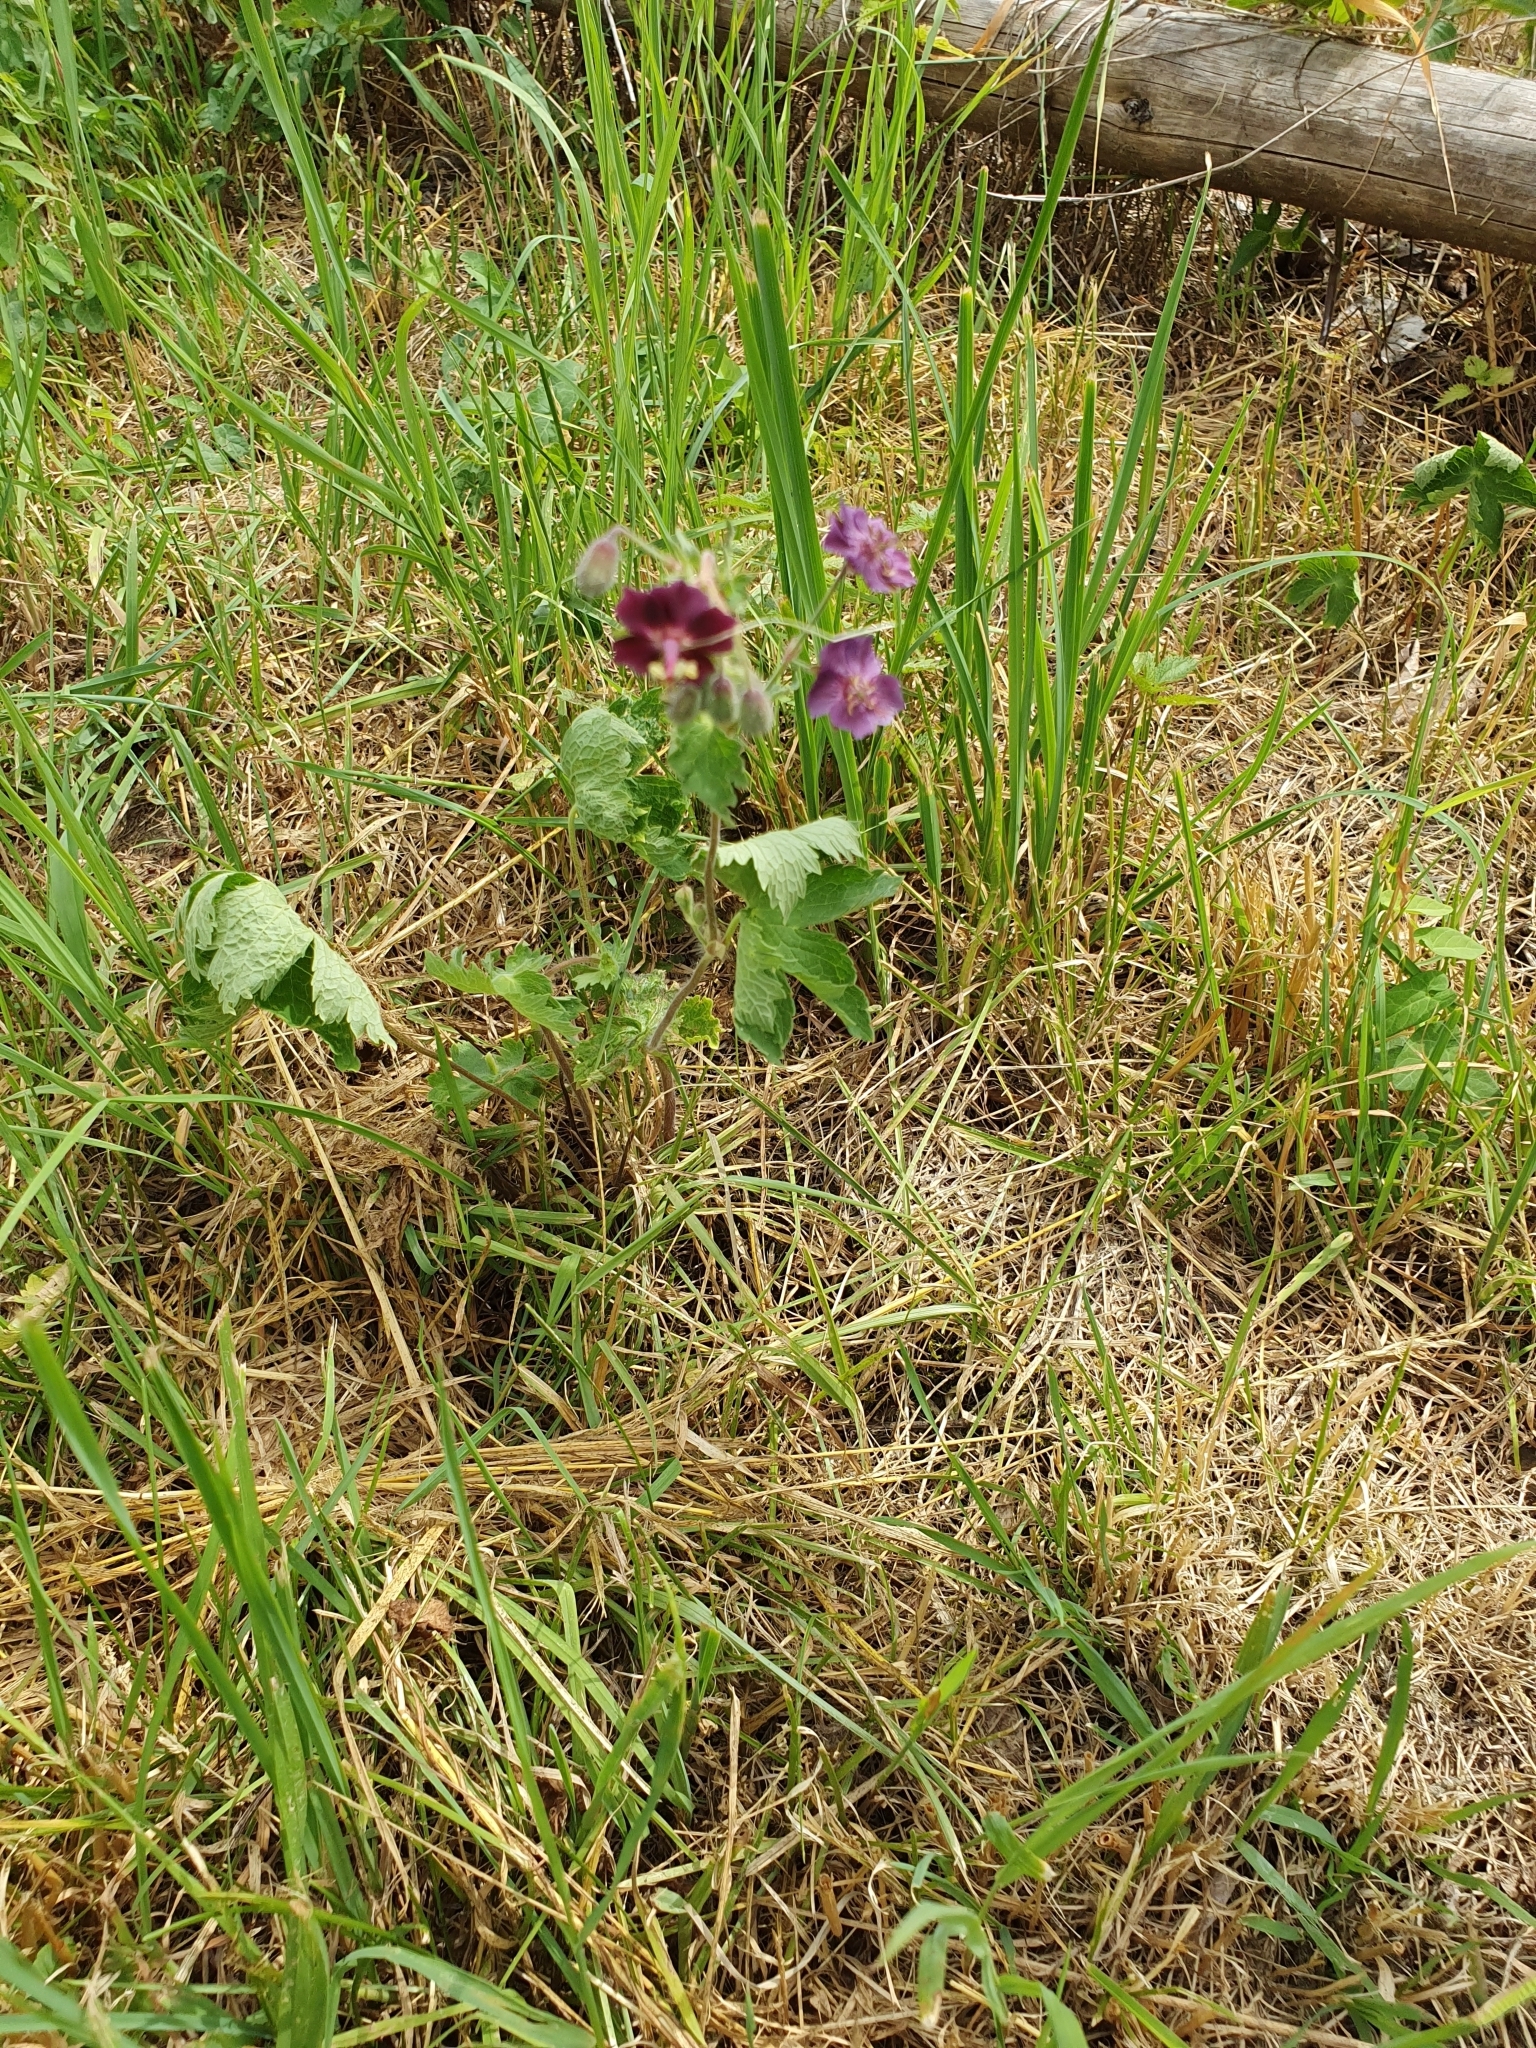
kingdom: Plantae
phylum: Tracheophyta
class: Magnoliopsida
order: Geraniales
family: Geraniaceae
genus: Geranium
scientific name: Geranium phaeum
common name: Dusky crane's-bill
